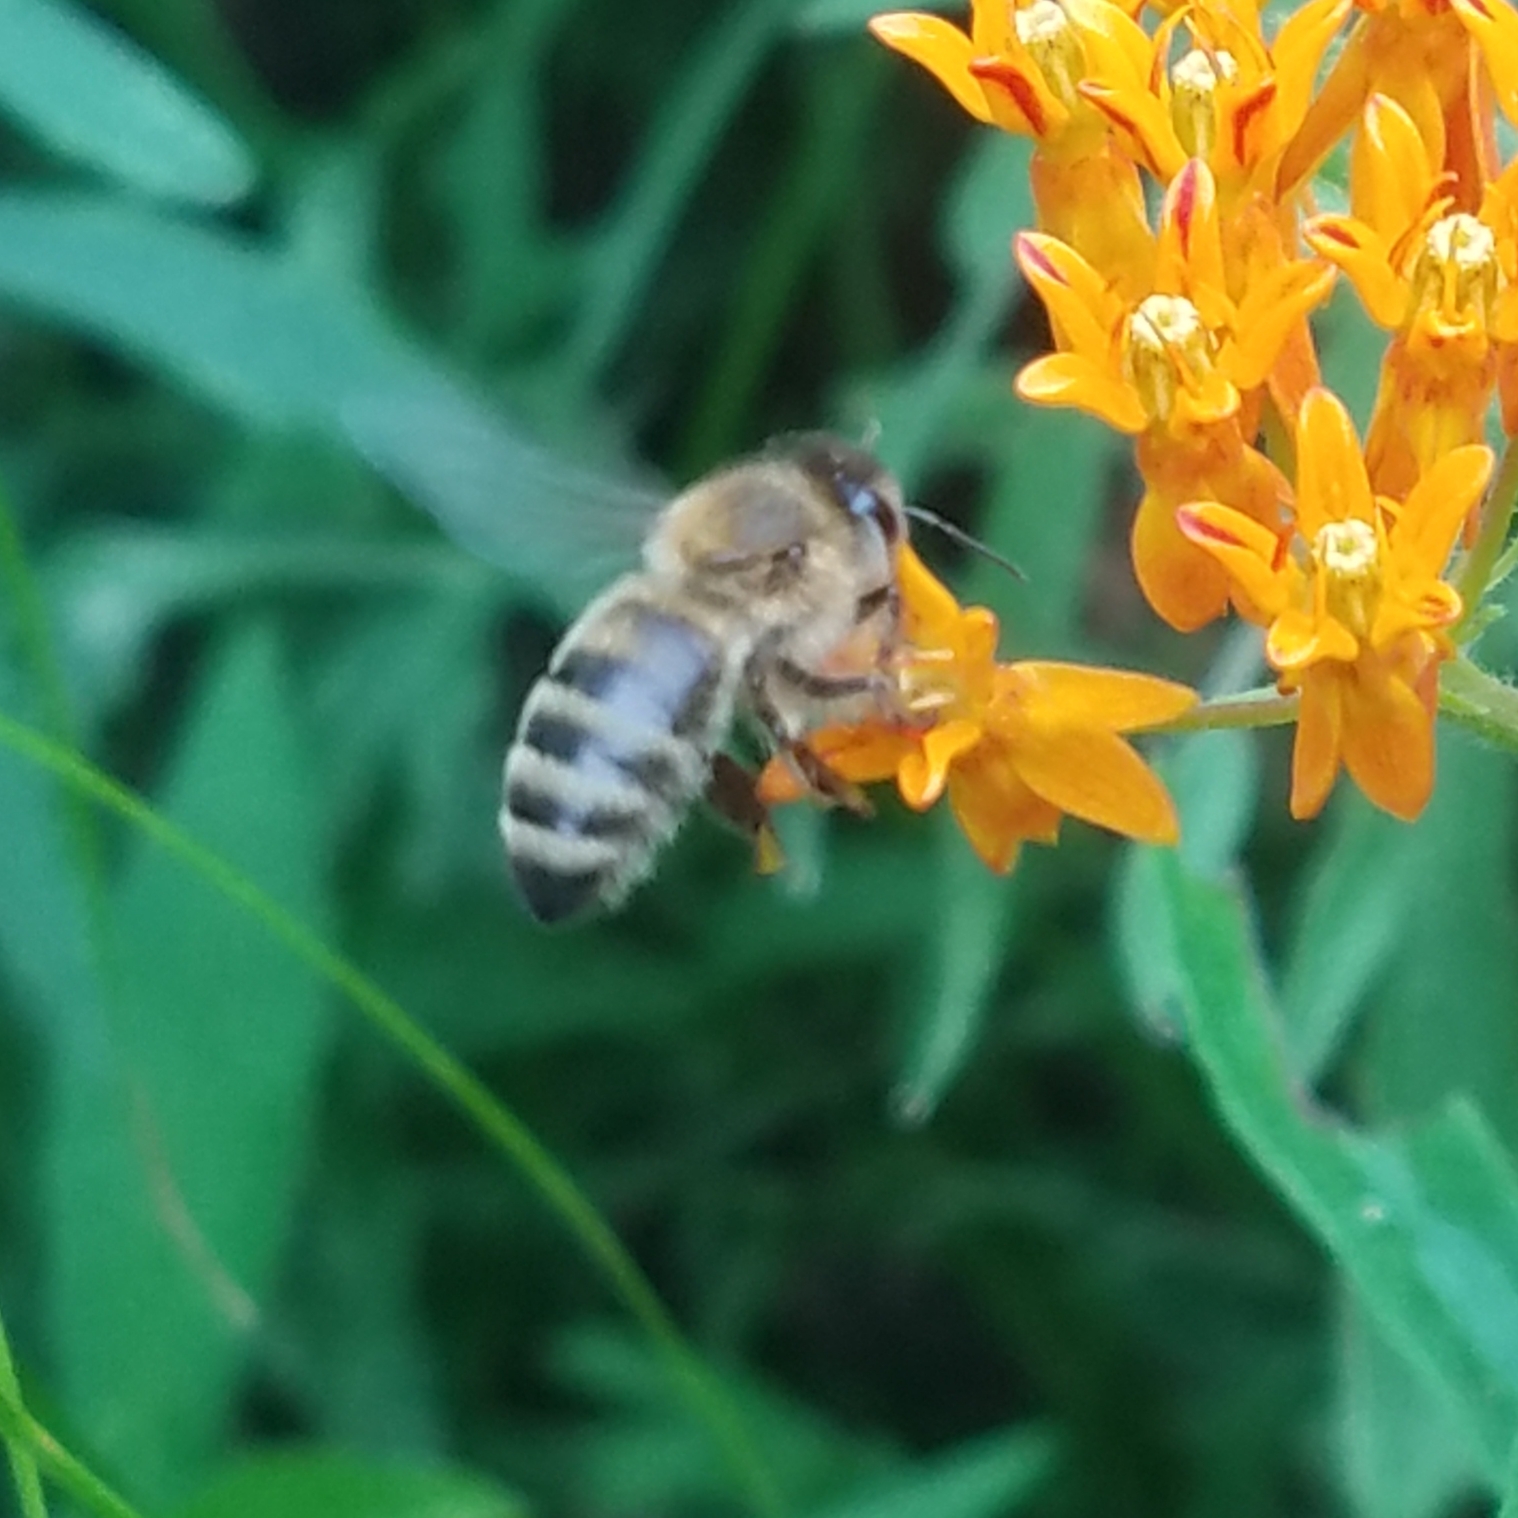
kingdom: Animalia
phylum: Arthropoda
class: Insecta
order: Hymenoptera
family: Apidae
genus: Apis
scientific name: Apis mellifera
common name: Honey bee
